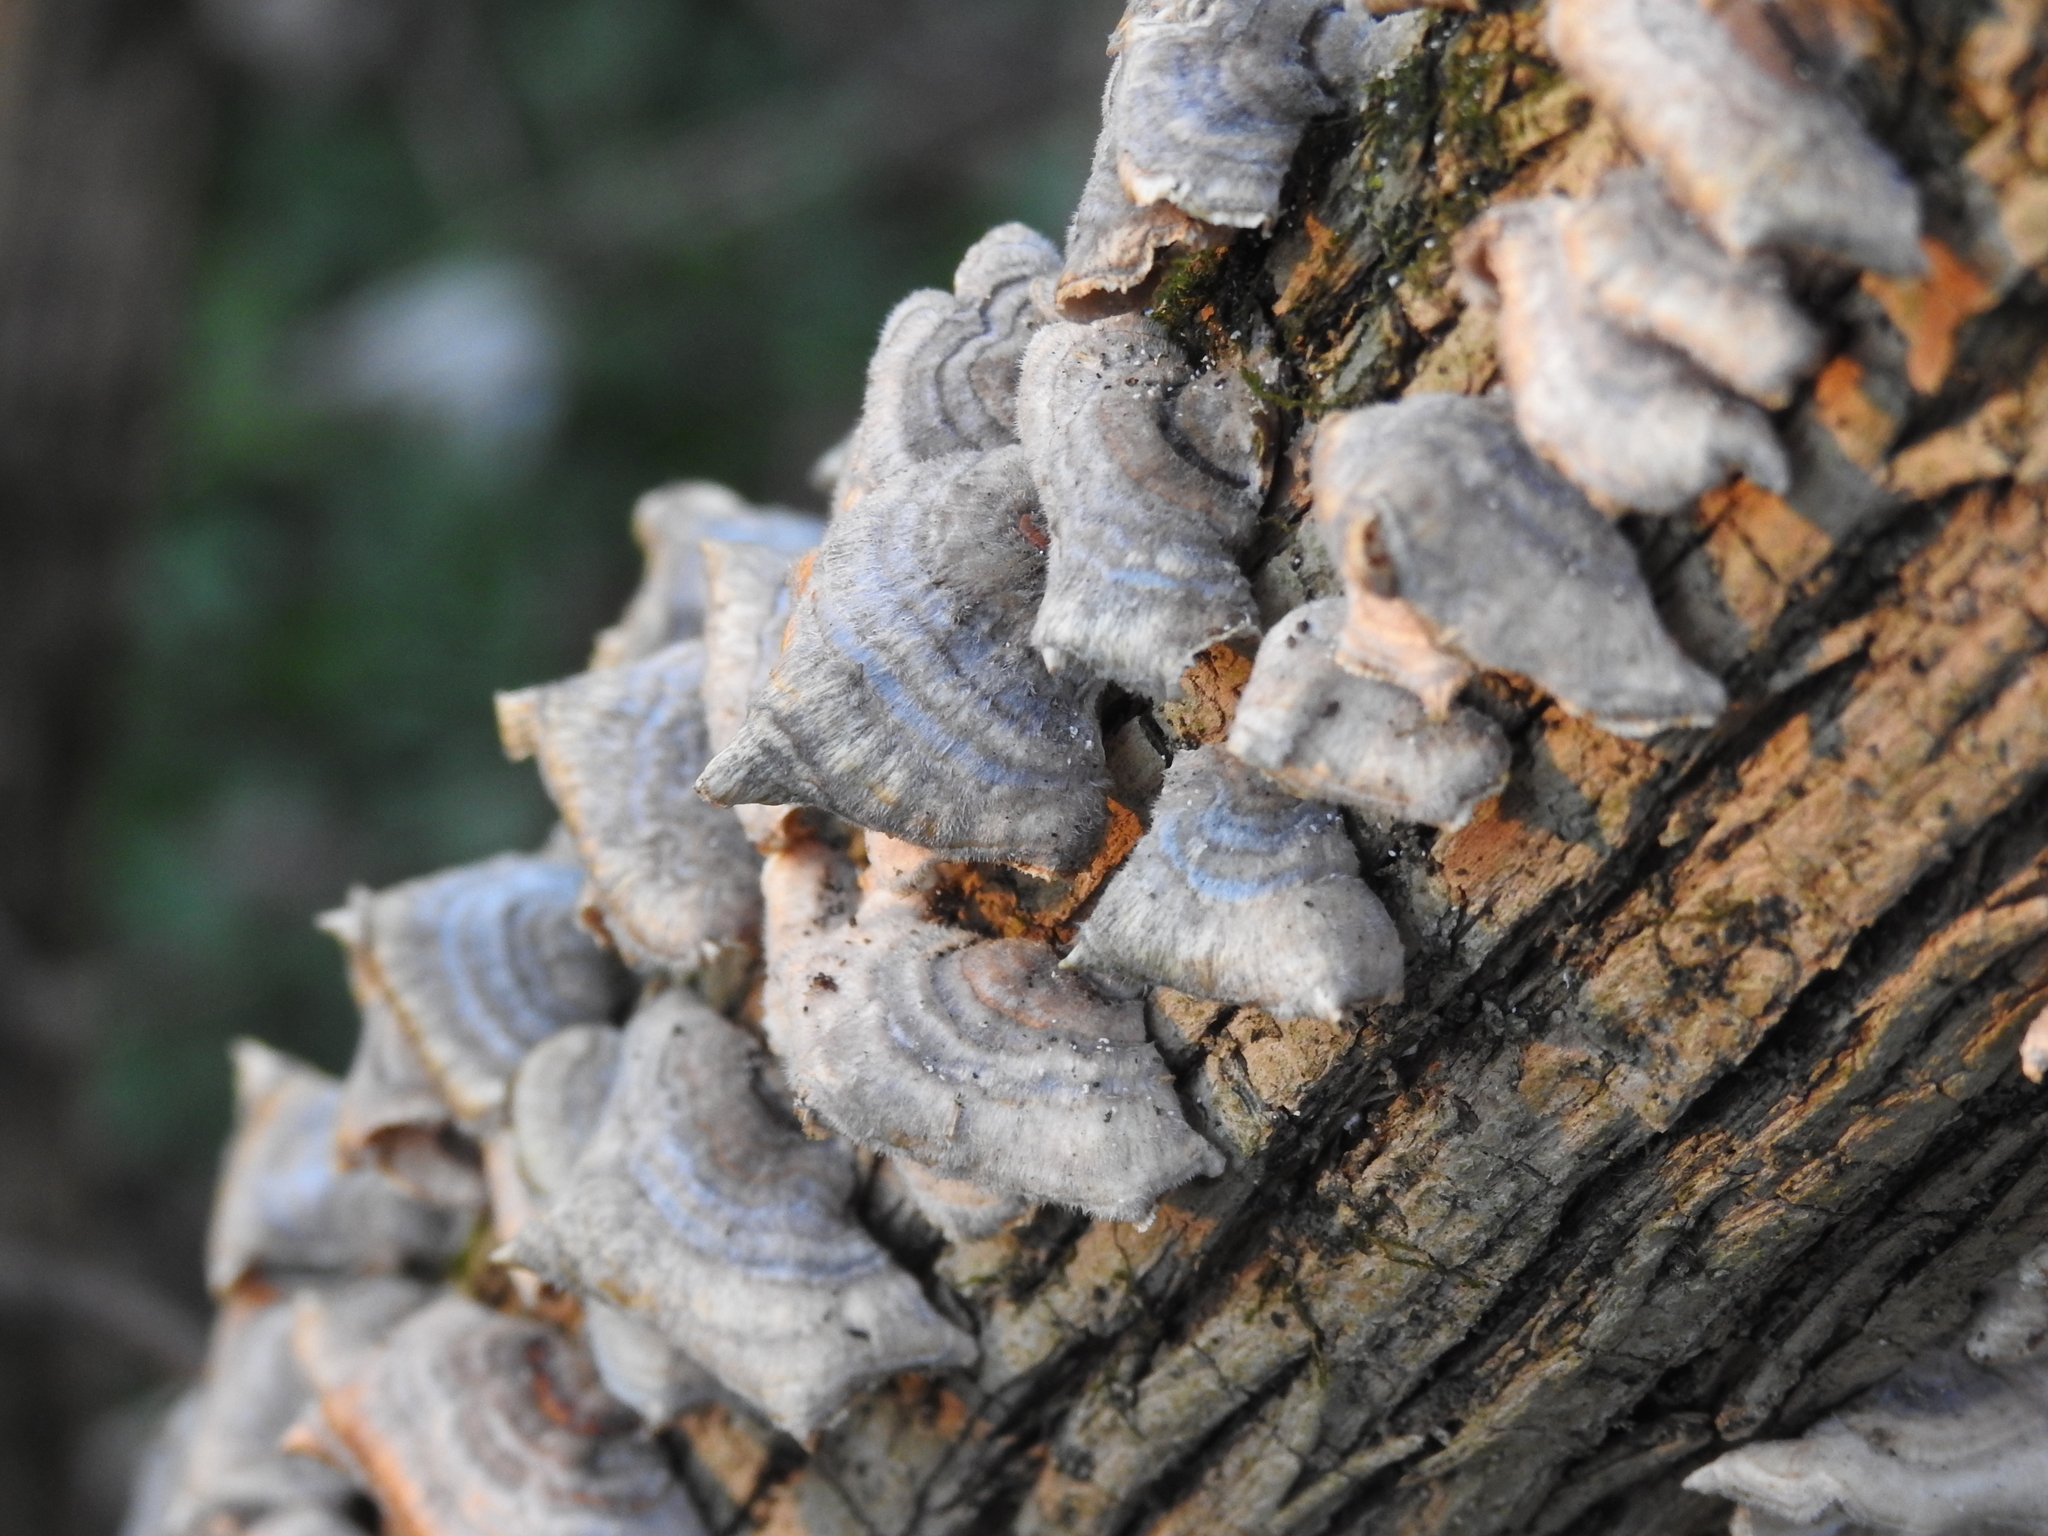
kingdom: Fungi
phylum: Basidiomycota
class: Agaricomycetes
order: Polyporales
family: Polyporaceae
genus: Trametes
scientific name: Trametes versicolor
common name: Turkeytail
